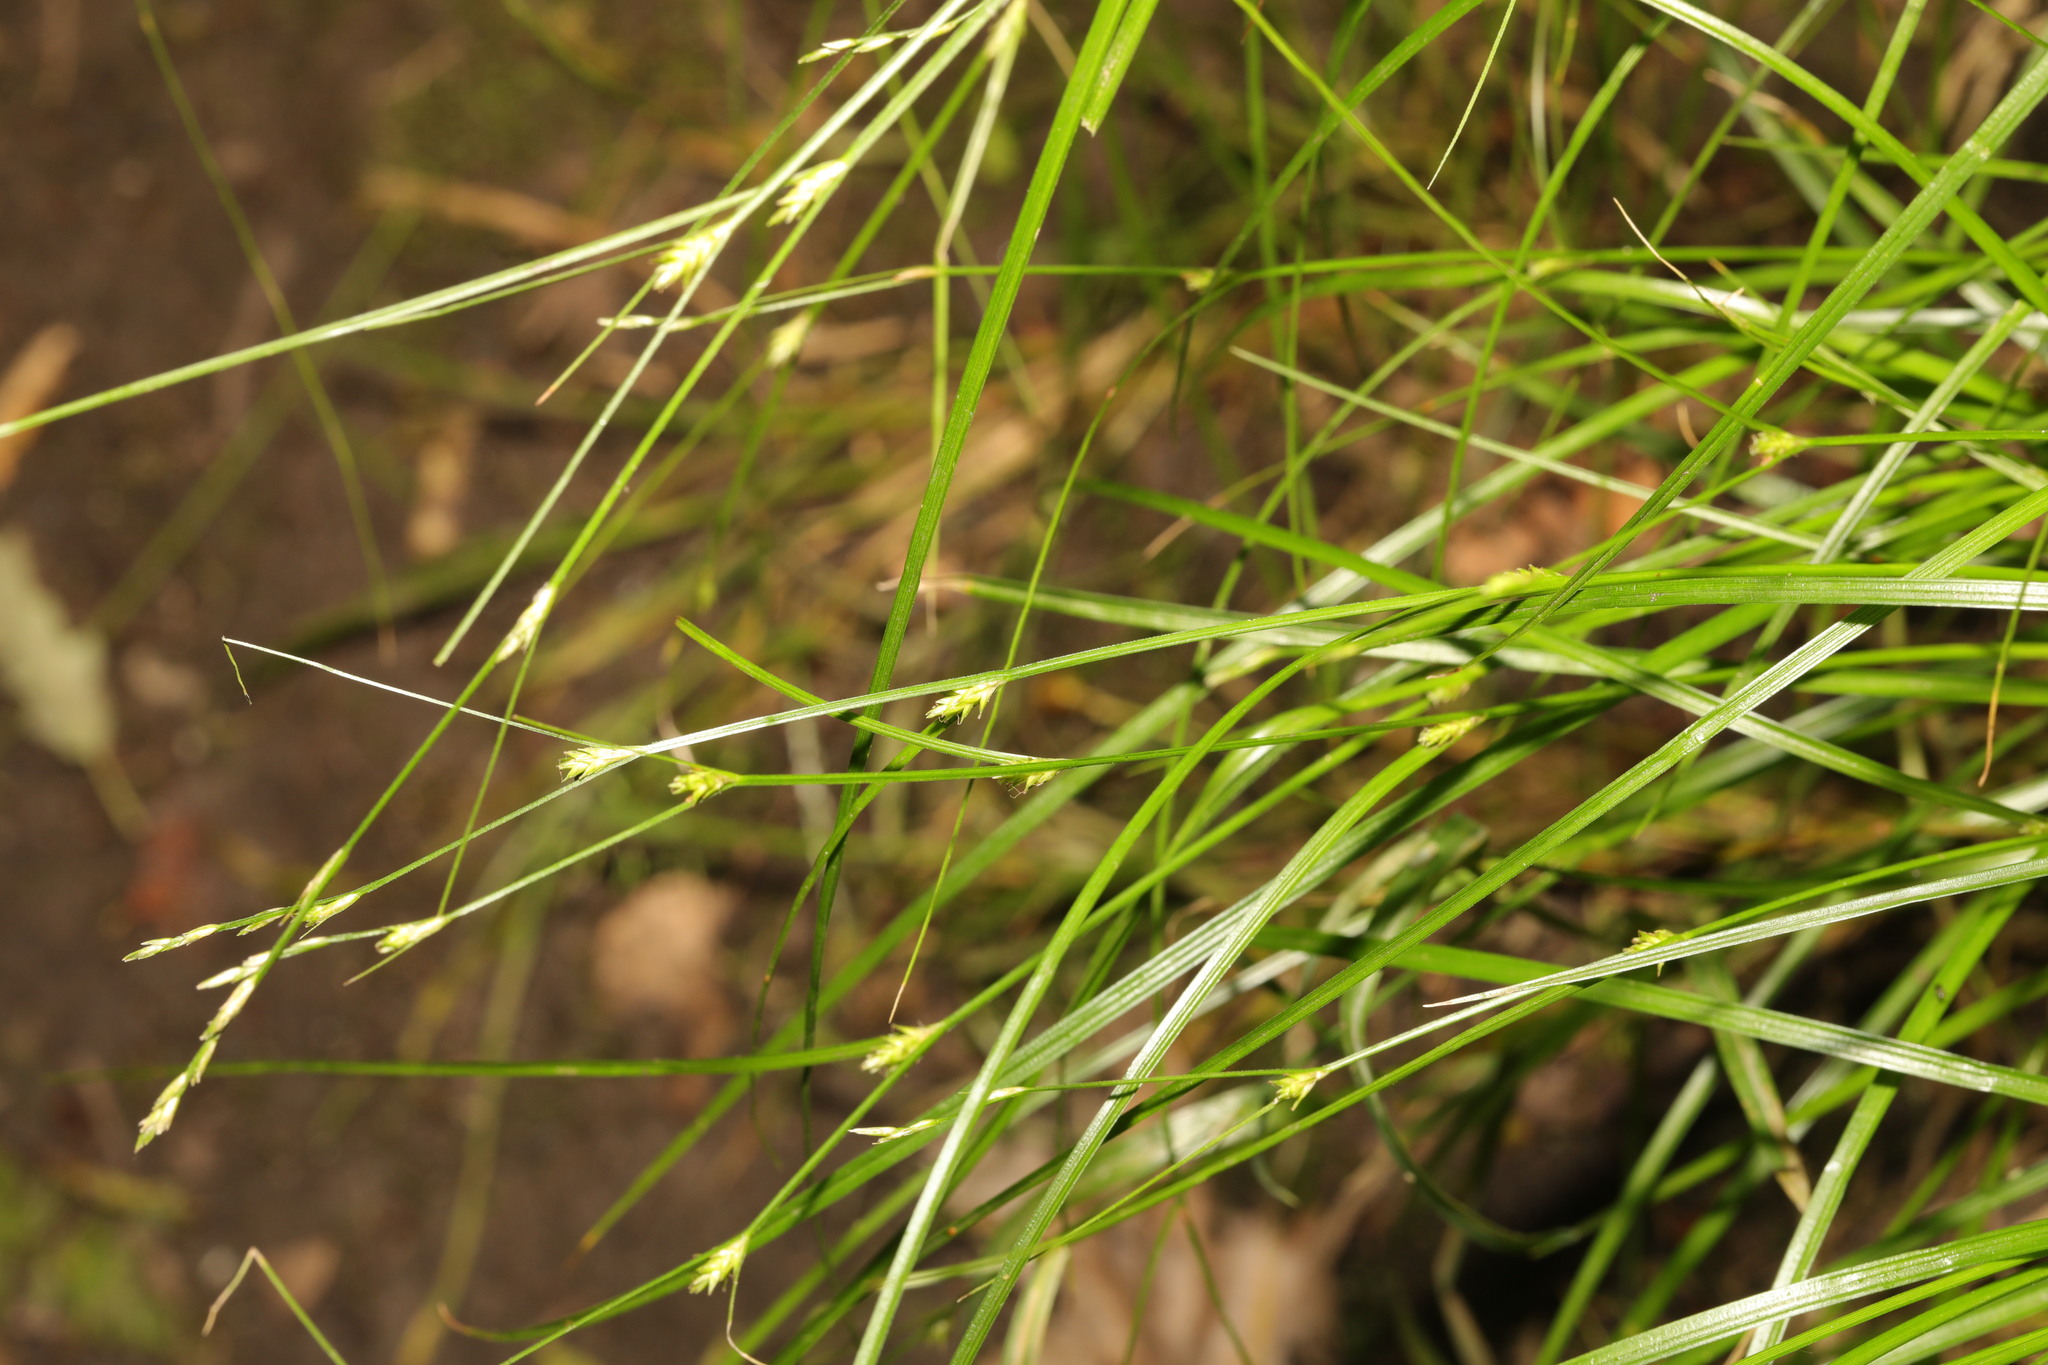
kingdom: Plantae
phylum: Tracheophyta
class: Liliopsida
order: Poales
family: Cyperaceae
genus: Carex
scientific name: Carex remota
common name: Remote sedge
